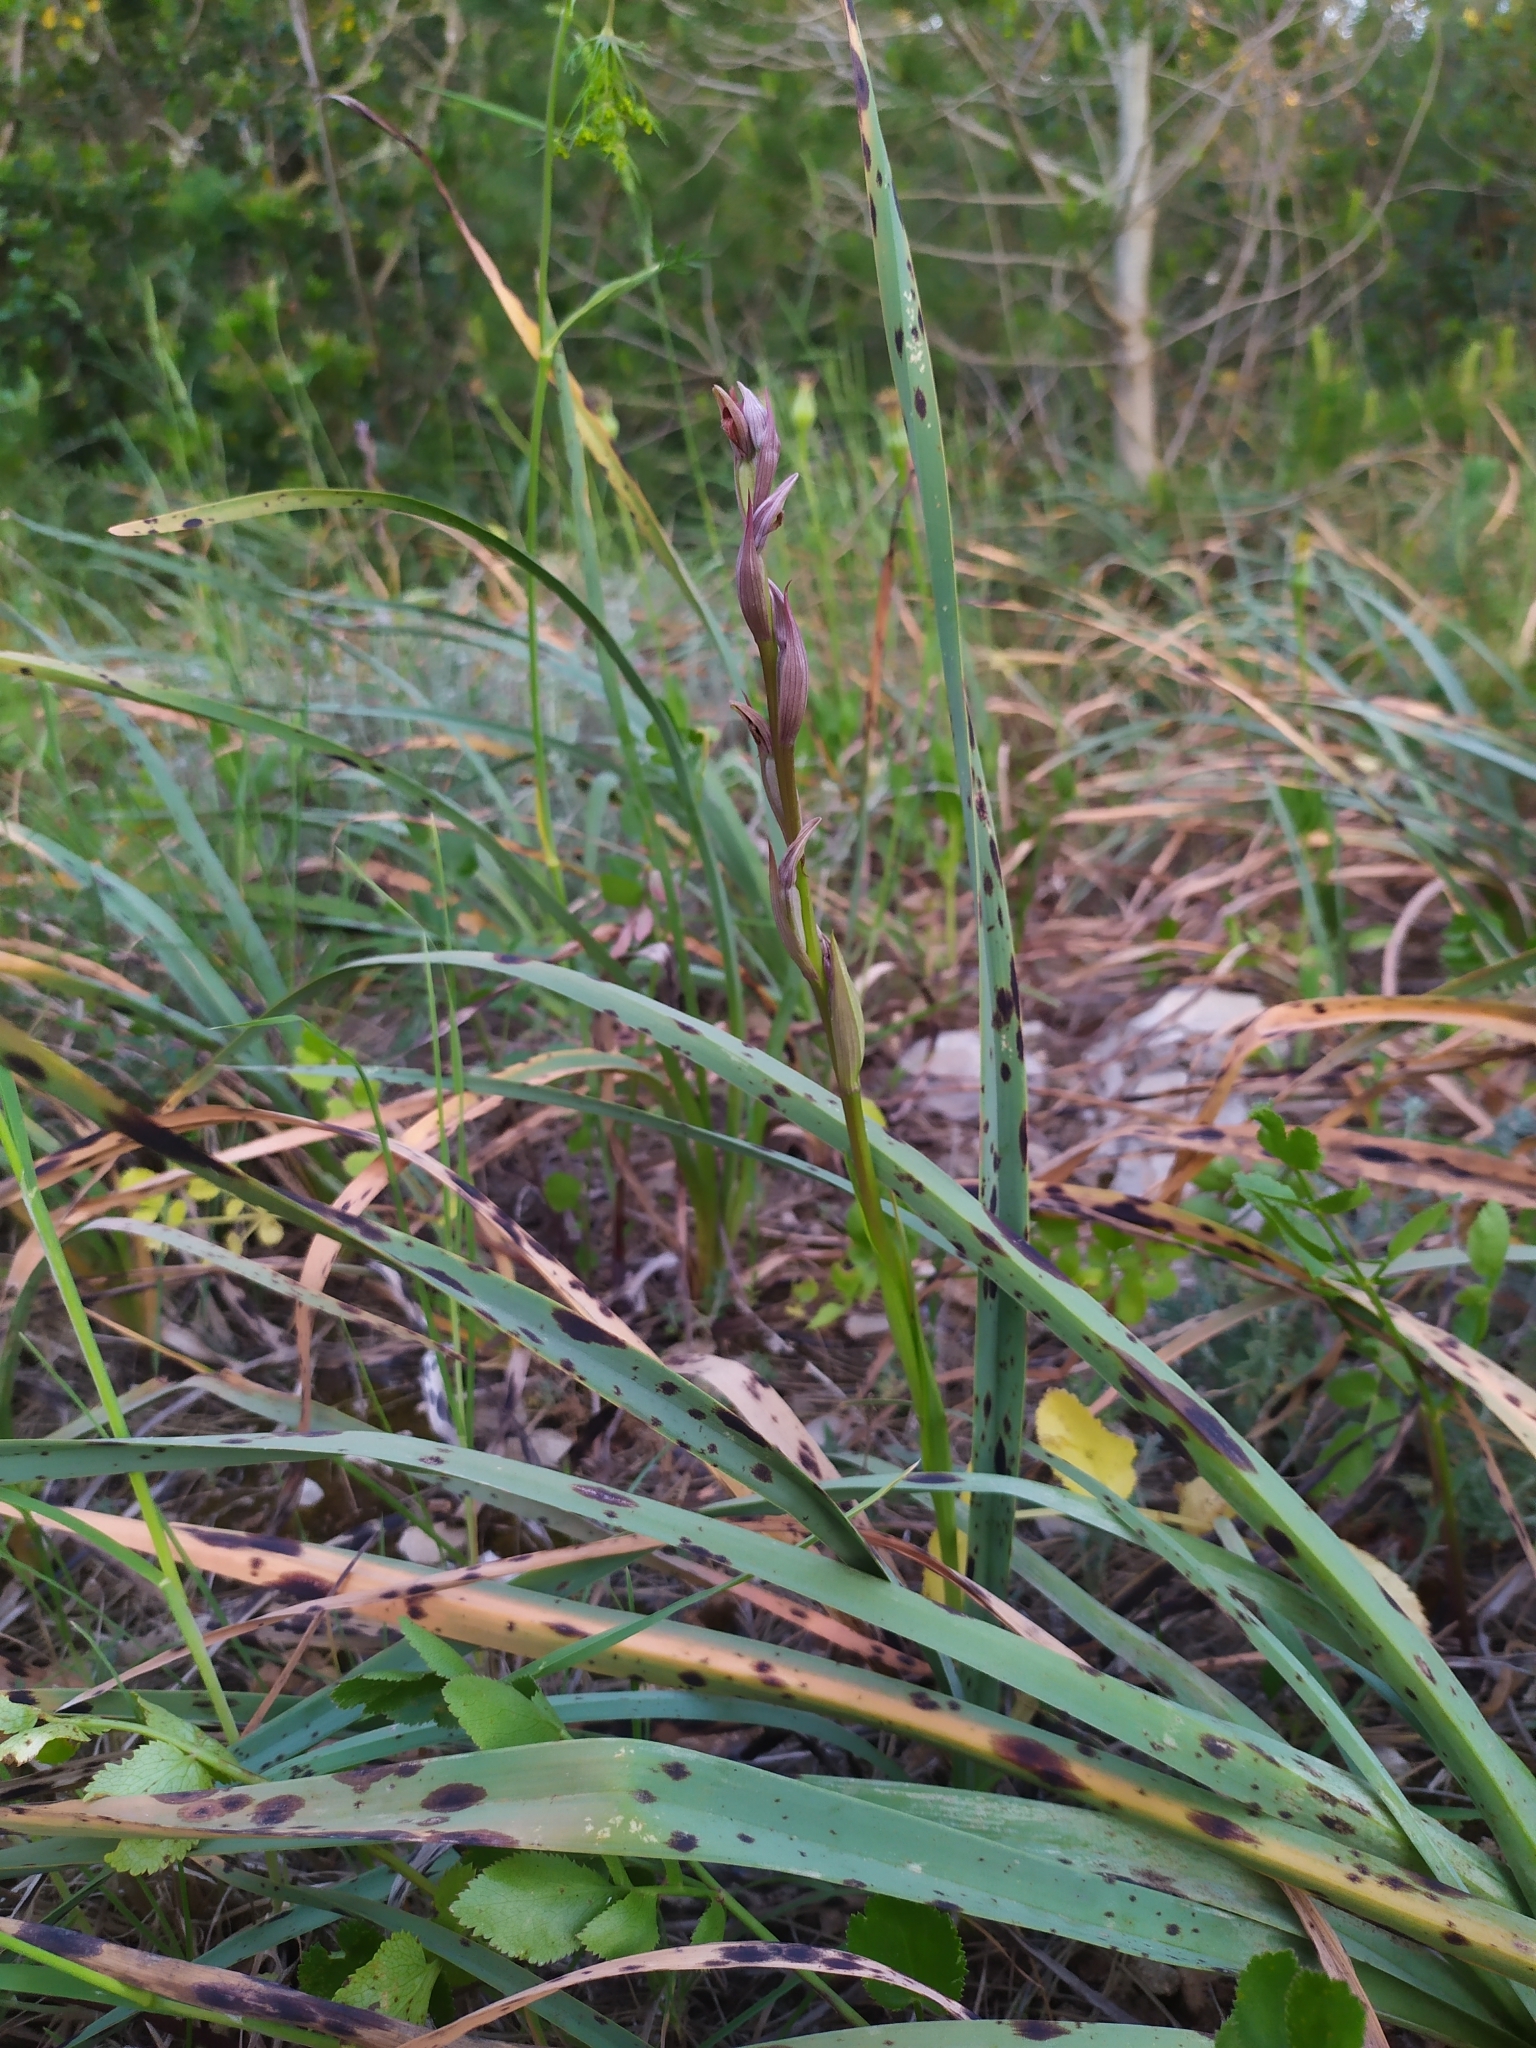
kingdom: Plantae
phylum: Tracheophyta
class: Liliopsida
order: Asparagales
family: Orchidaceae
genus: Serapias
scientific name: Serapias parviflora
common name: Small-flowered tongue-orchid
